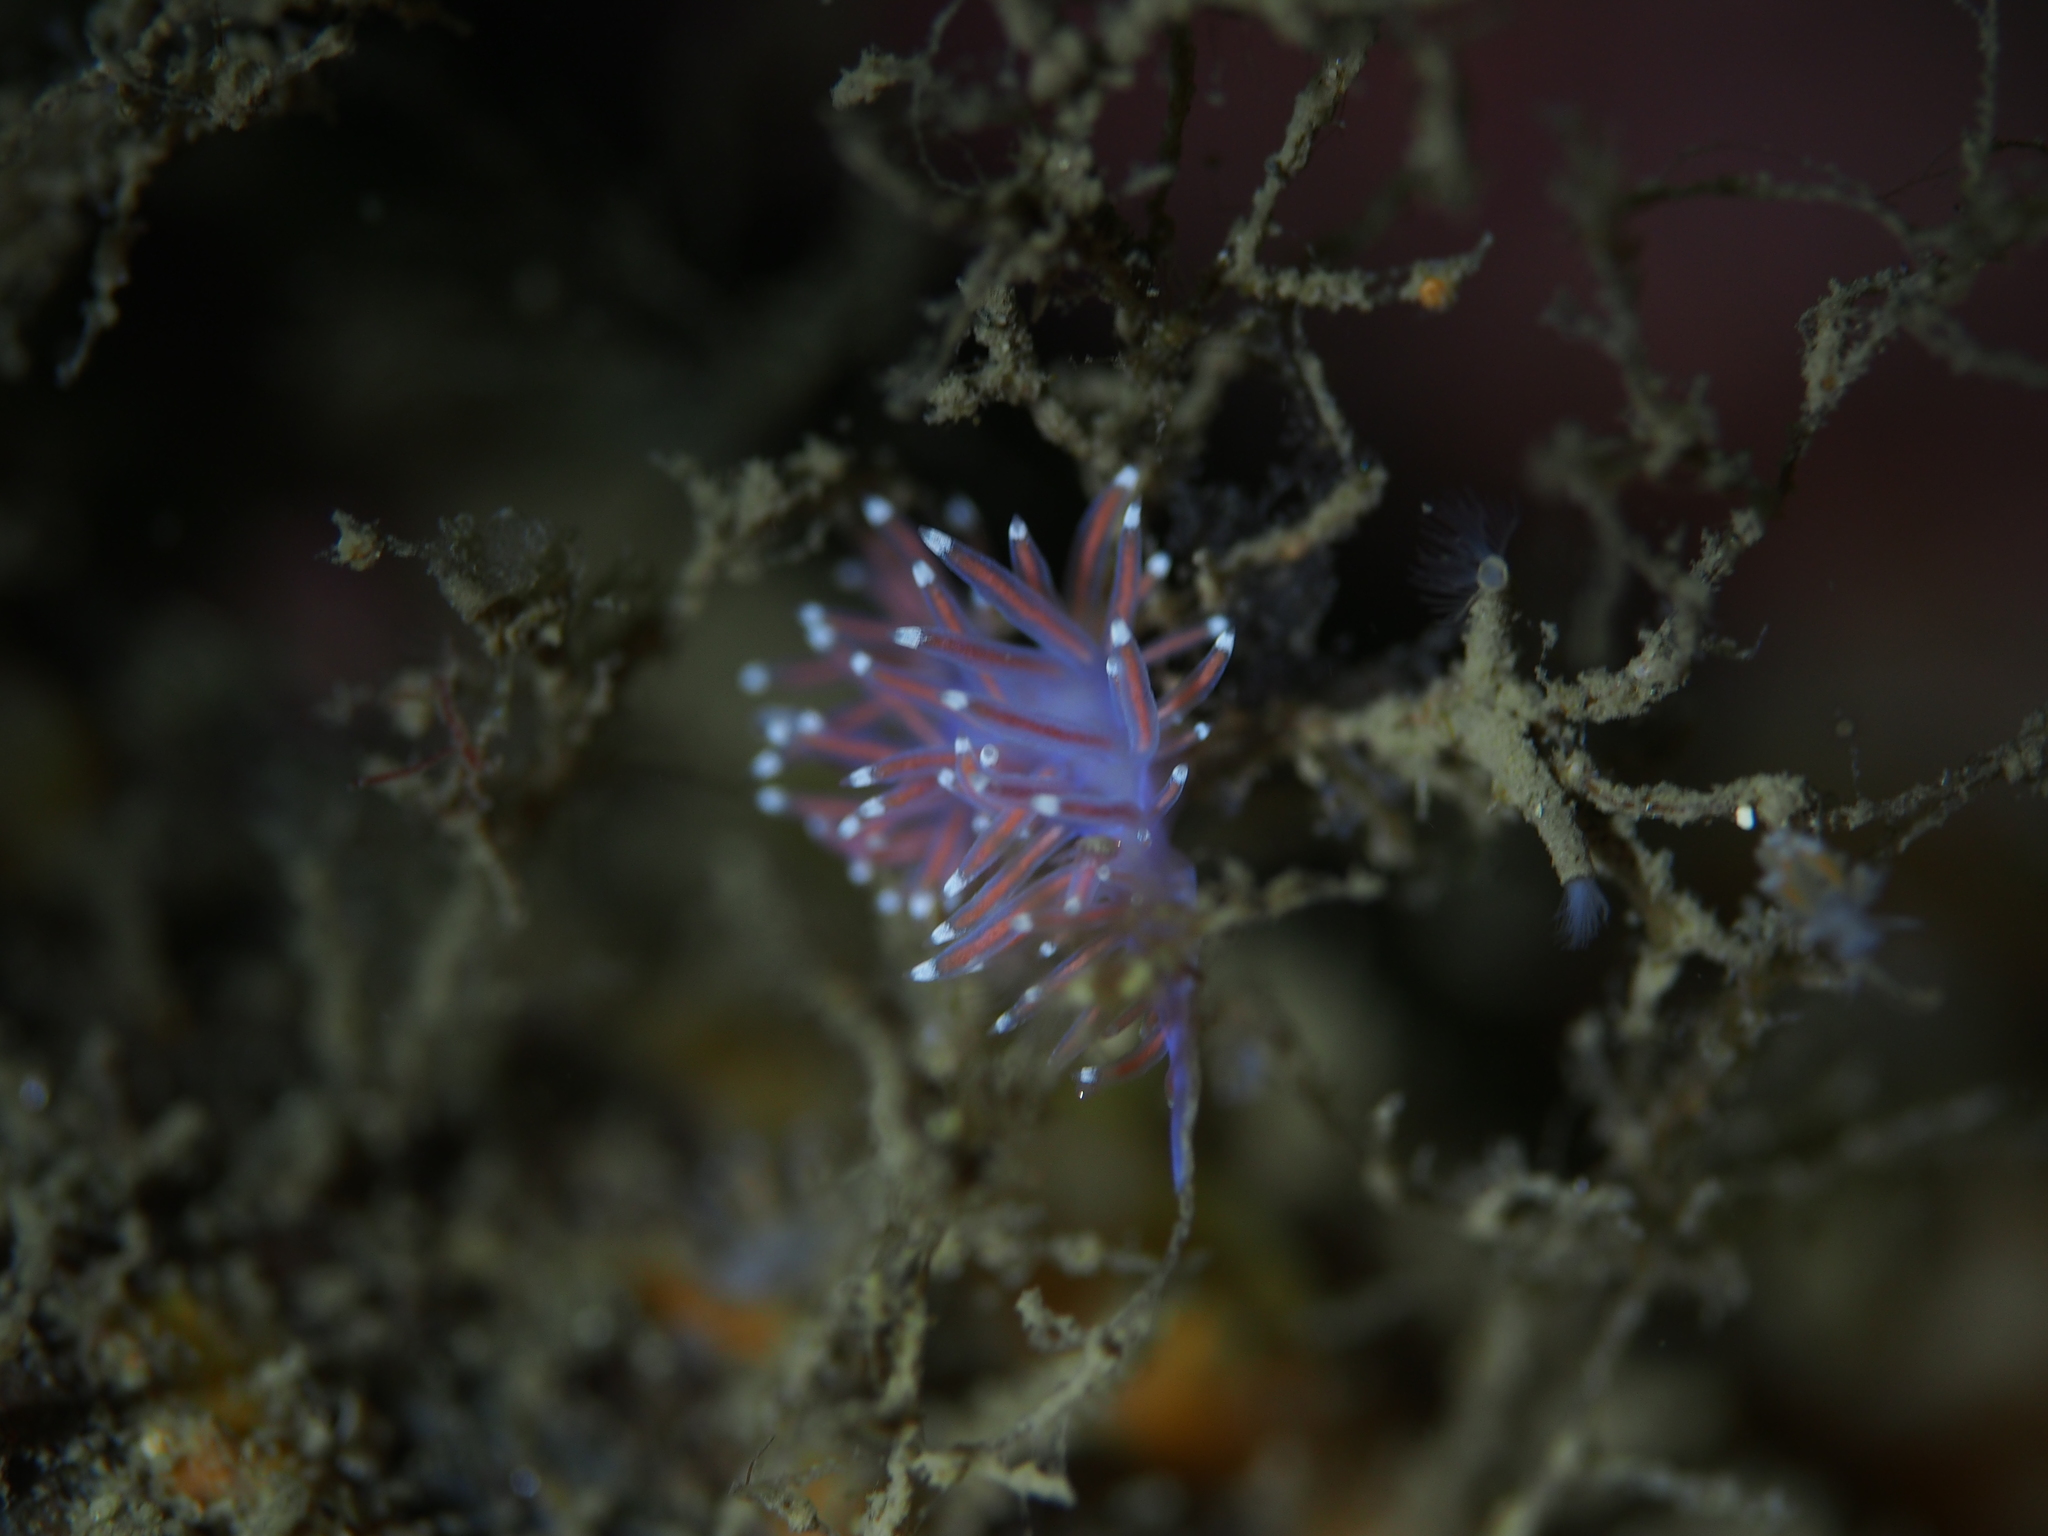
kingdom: Animalia
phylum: Mollusca
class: Gastropoda
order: Nudibranchia
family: Flabellinidae
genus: Edmundsella
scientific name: Edmundsella pedata
